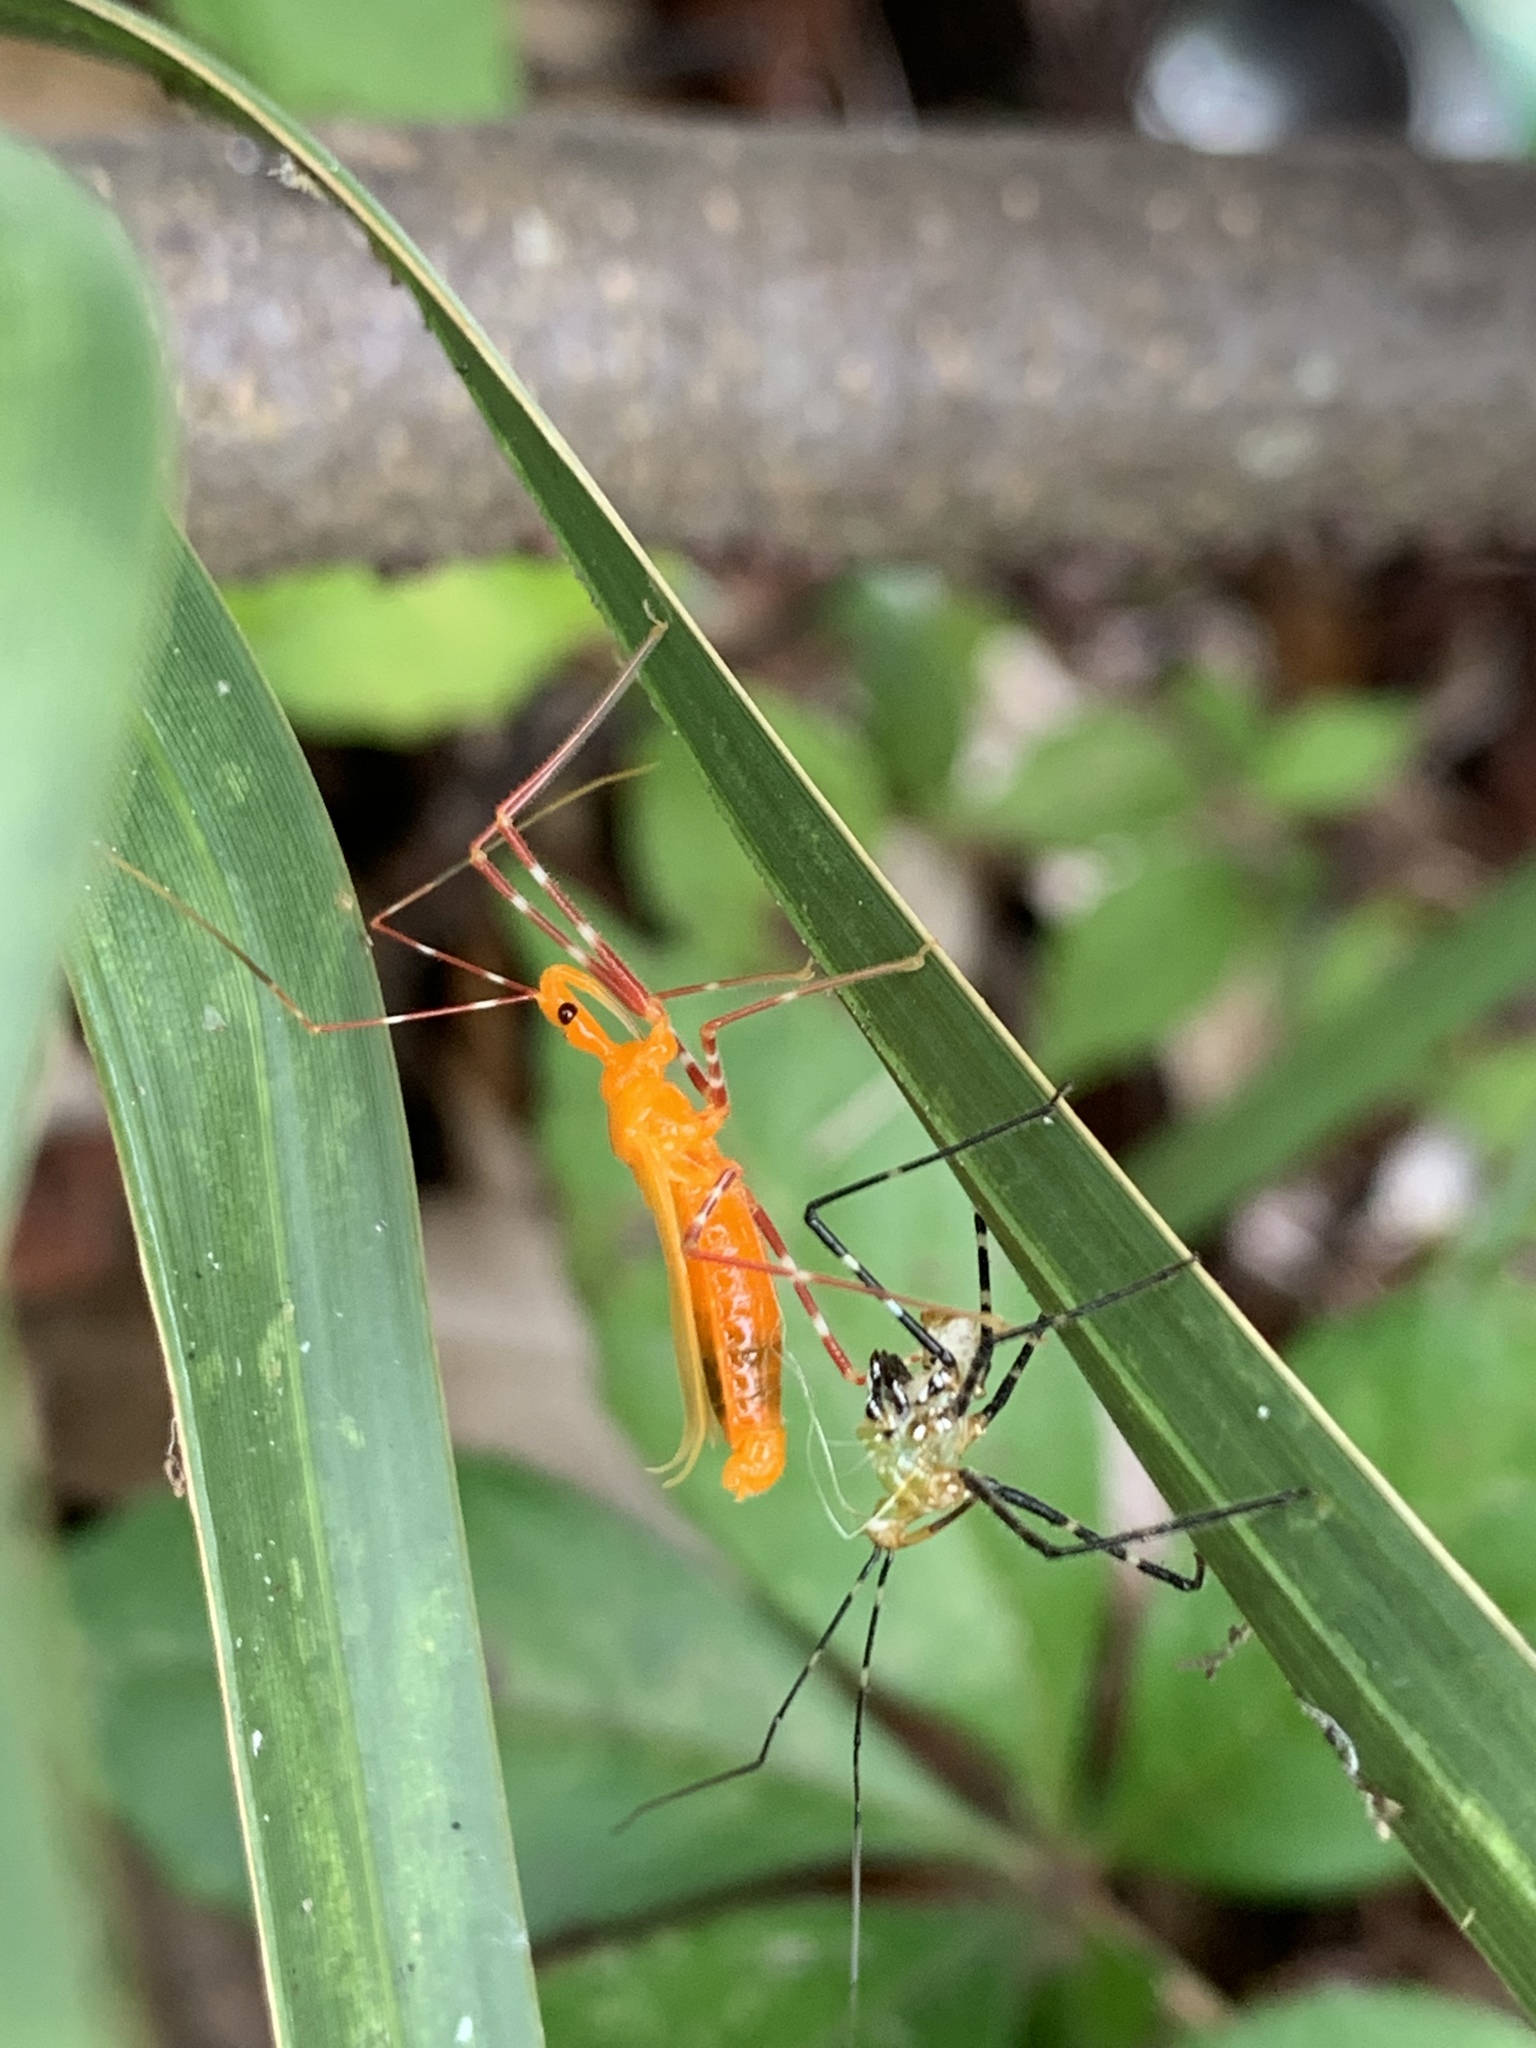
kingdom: Animalia
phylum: Arthropoda
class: Insecta
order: Hemiptera
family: Reduviidae
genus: Zelus
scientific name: Zelus longipes
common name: Milkweed assassin bug
